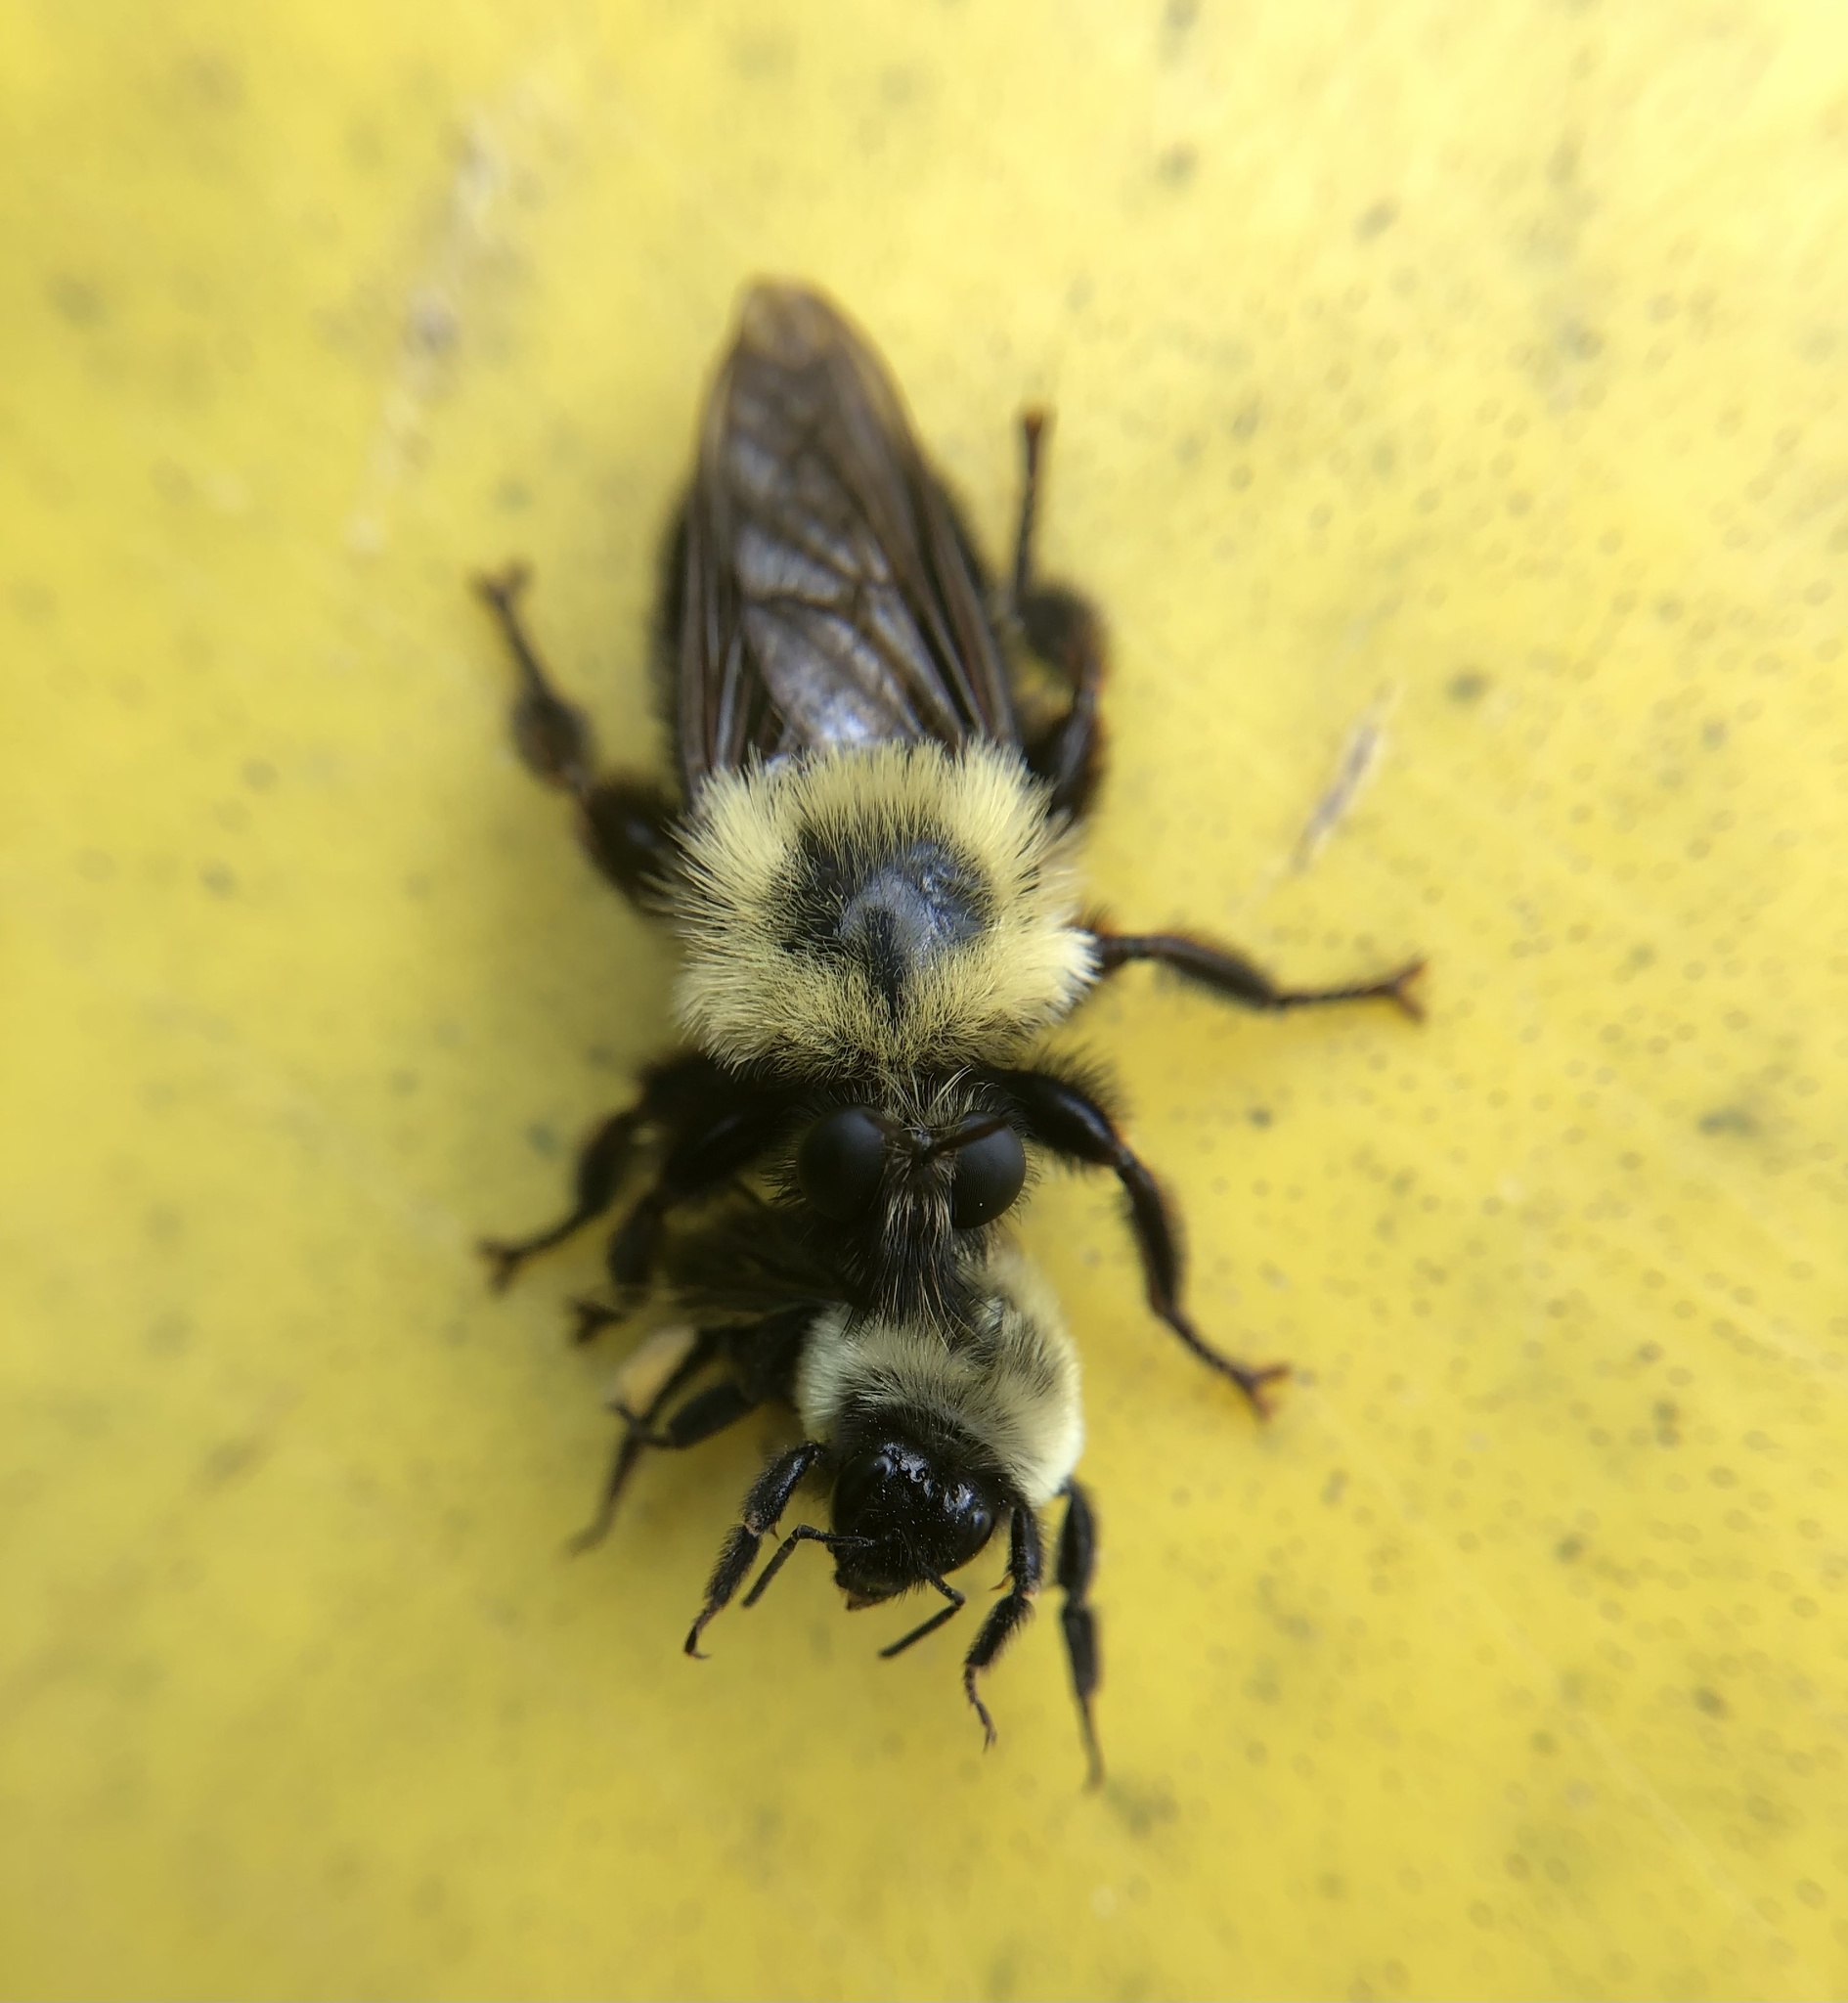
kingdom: Animalia
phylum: Arthropoda
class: Insecta
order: Hymenoptera
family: Apidae
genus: Bombus
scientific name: Bombus impatiens
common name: Common eastern bumble bee
